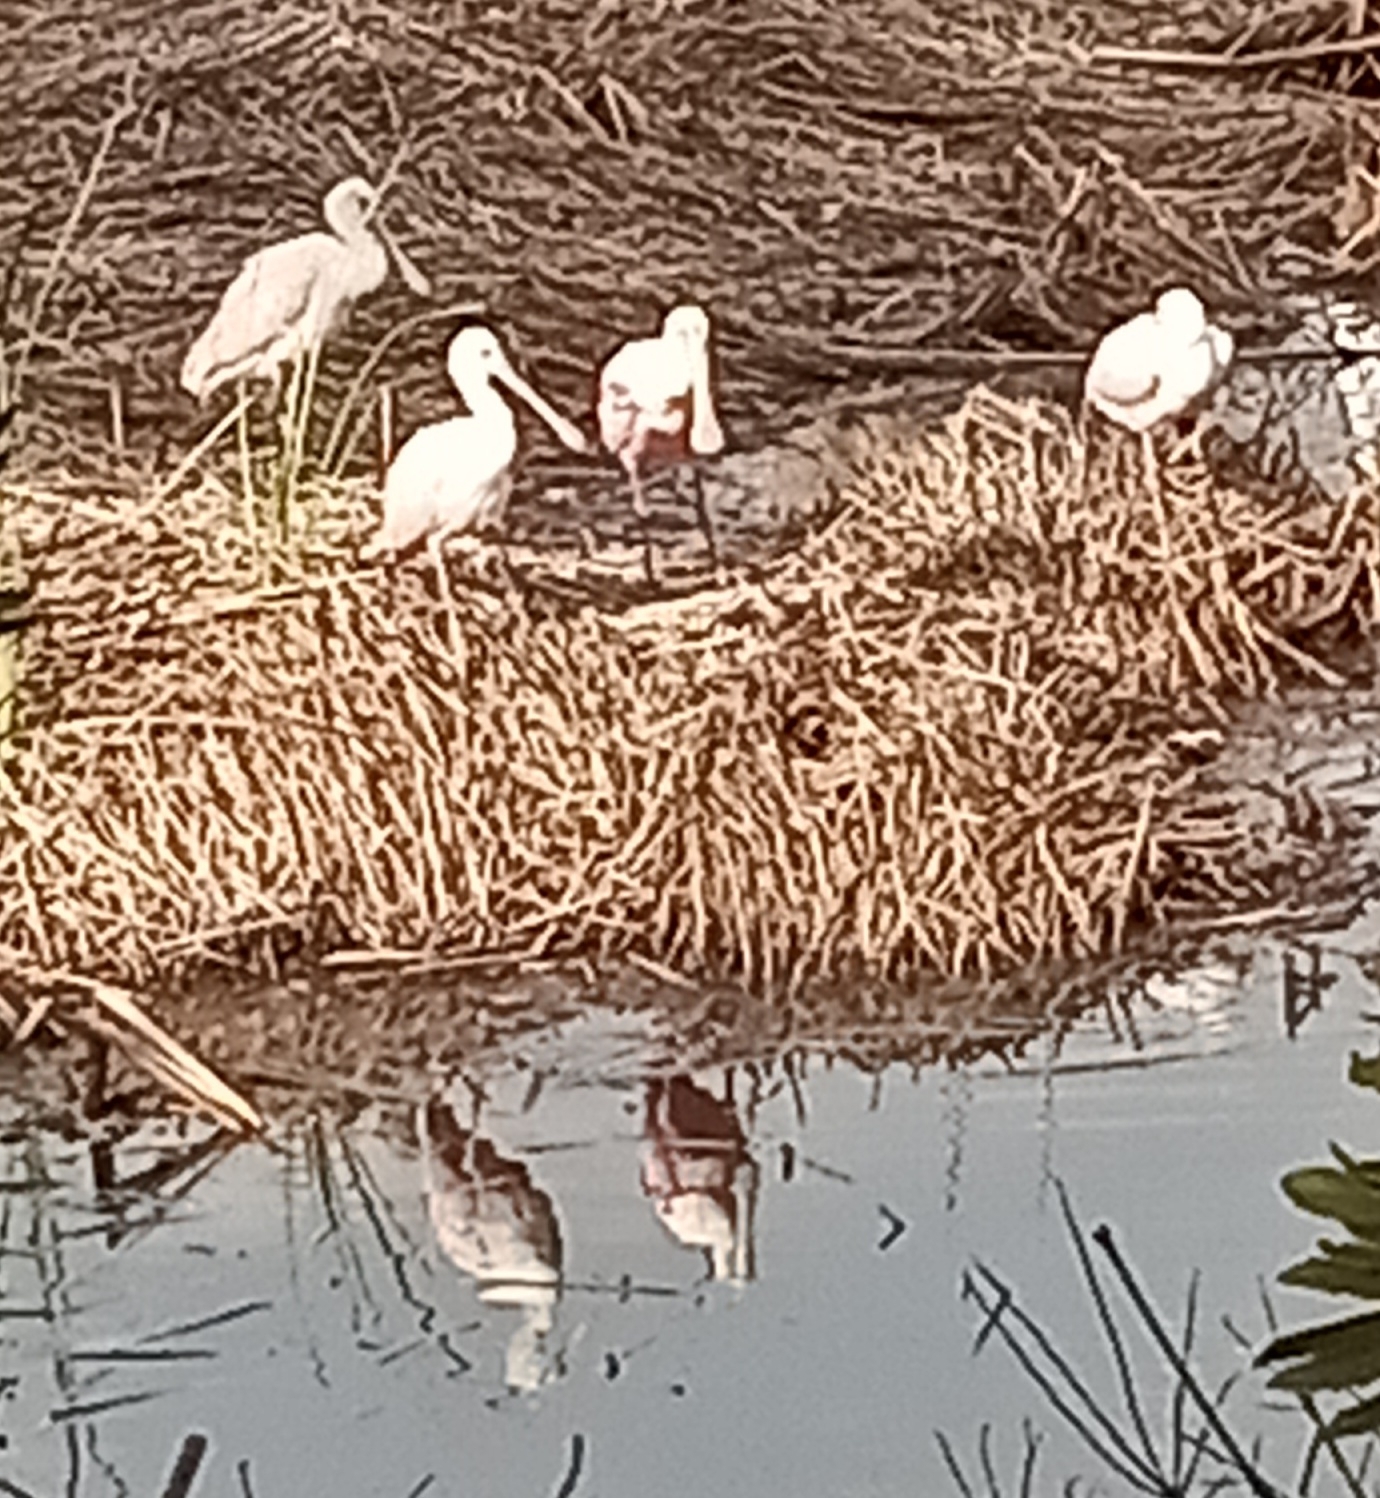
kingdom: Animalia
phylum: Chordata
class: Aves
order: Pelecaniformes
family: Threskiornithidae
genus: Platalea
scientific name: Platalea ajaja
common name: Roseate spoonbill
